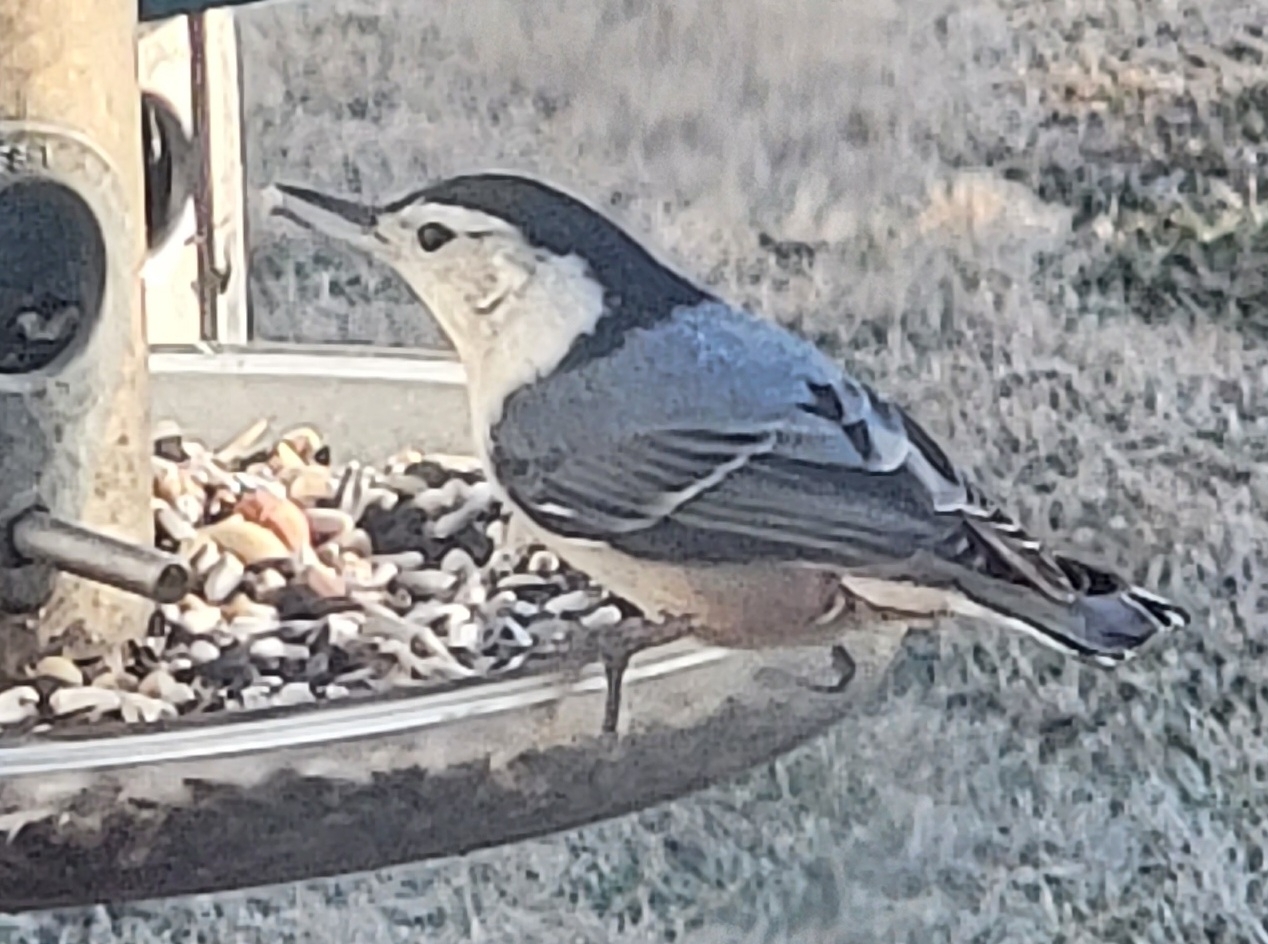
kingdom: Animalia
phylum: Chordata
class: Aves
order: Passeriformes
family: Sittidae
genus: Sitta
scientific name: Sitta carolinensis
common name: White-breasted nuthatch
